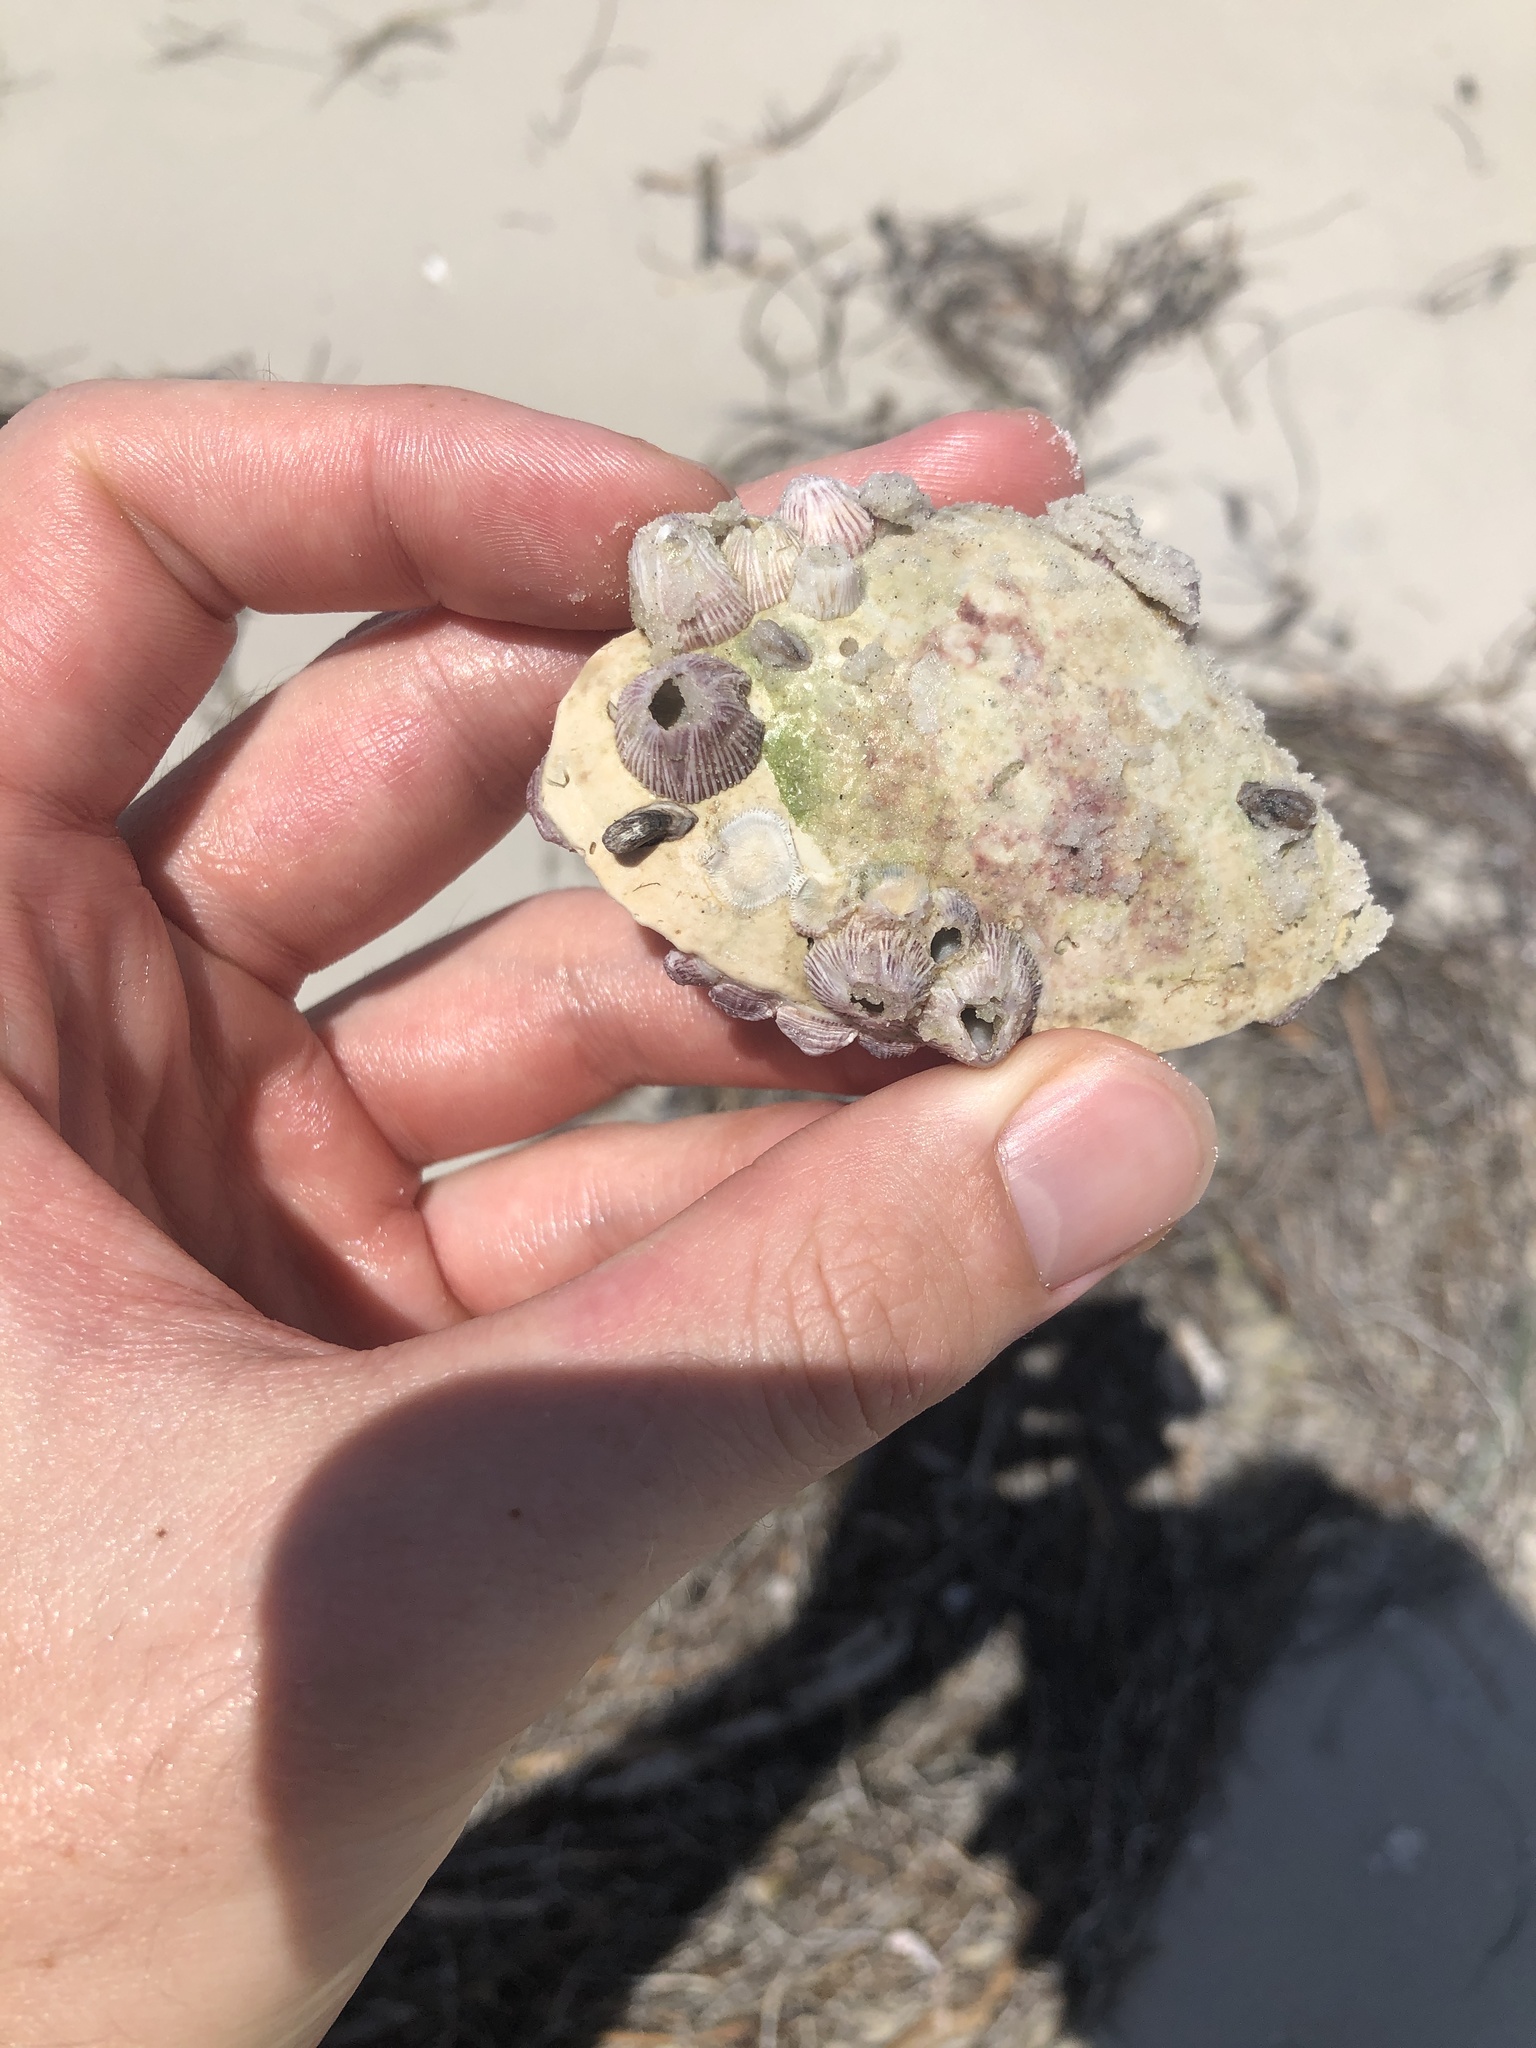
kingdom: Animalia
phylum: Arthropoda
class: Maxillopoda
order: Sessilia
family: Balanidae
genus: Balanus
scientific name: Balanus trigonus
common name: Triangle barnacle
